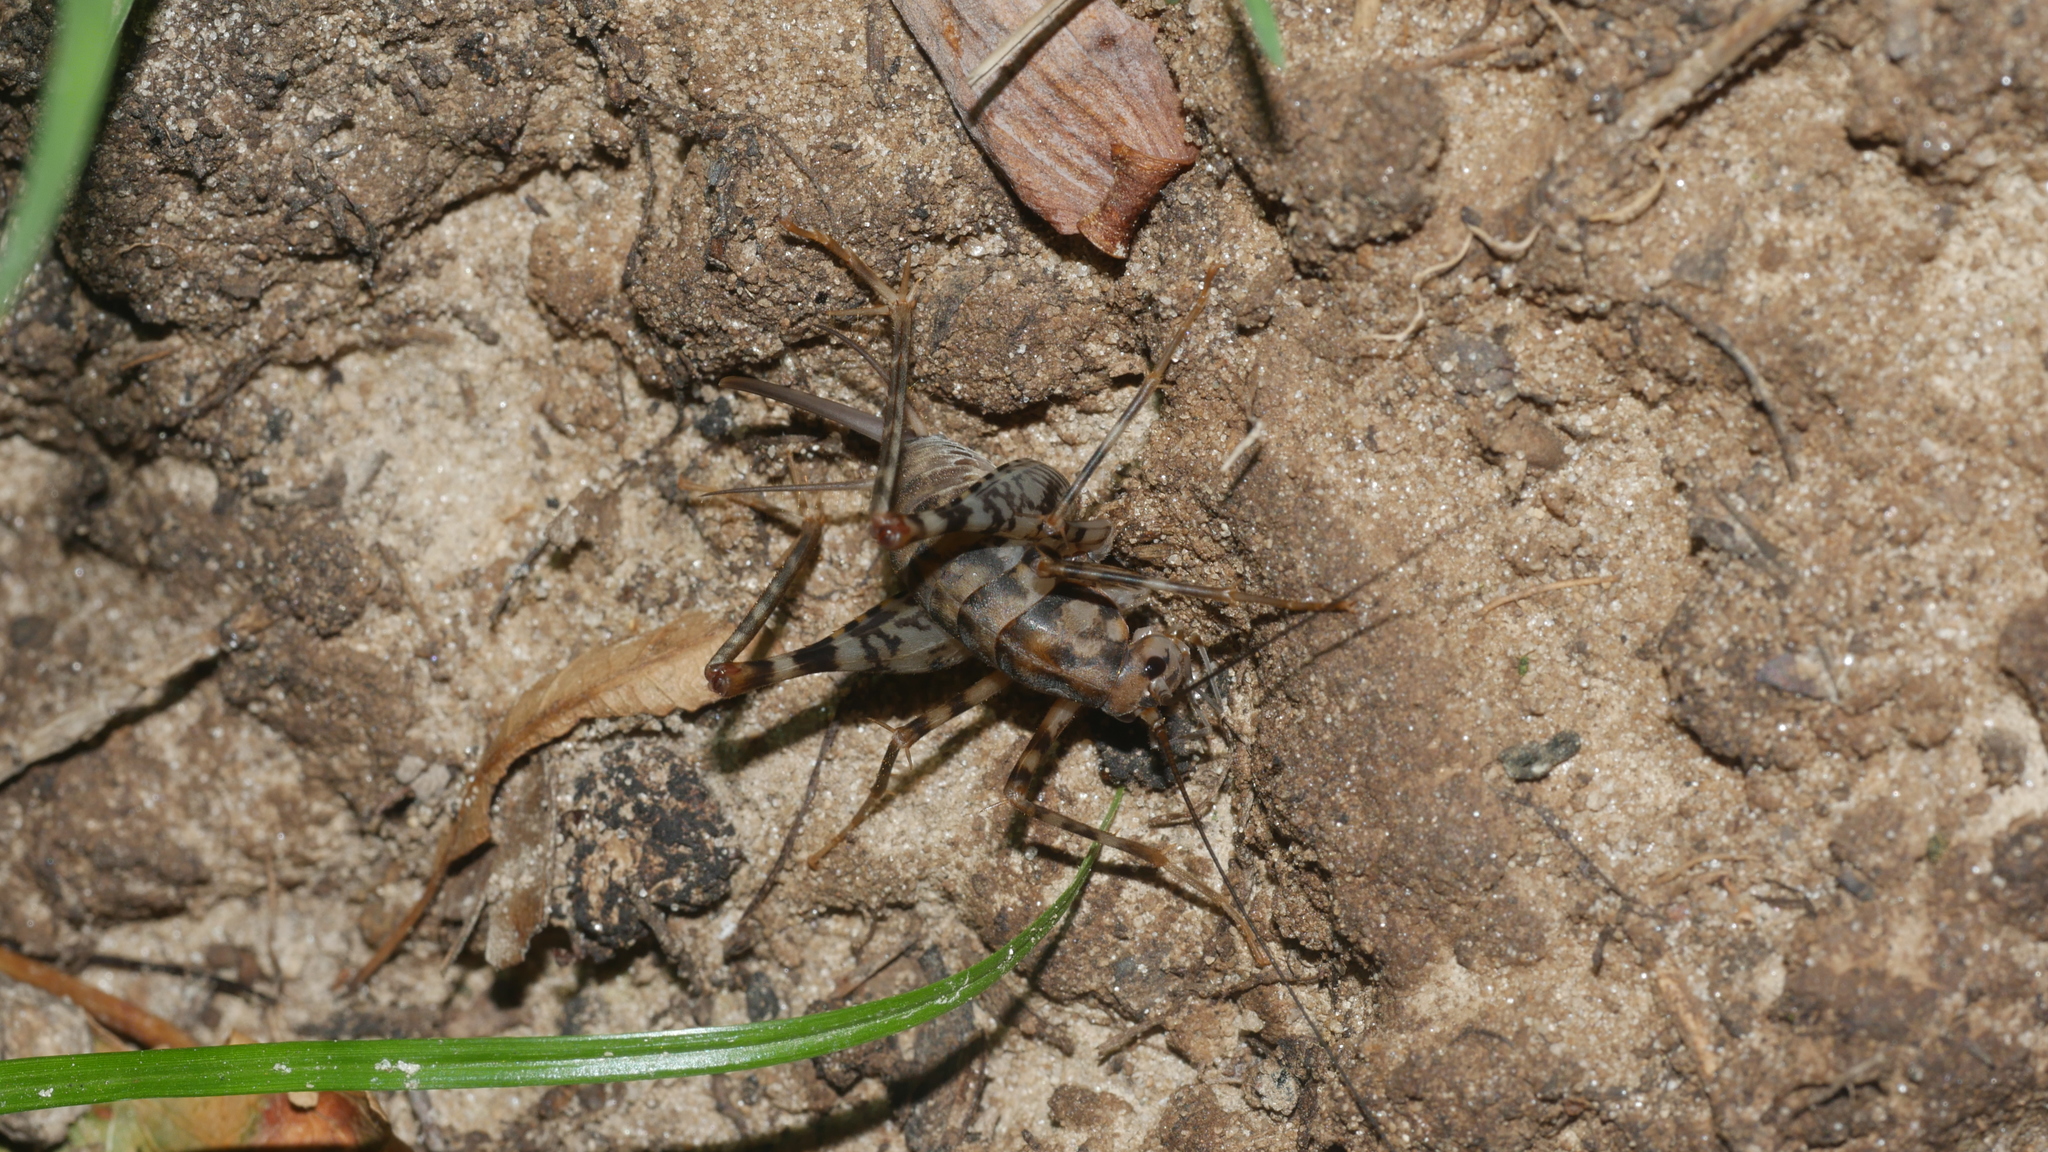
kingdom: Animalia
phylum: Arthropoda
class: Insecta
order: Orthoptera
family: Rhaphidophoridae
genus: Tachycines
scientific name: Tachycines asynamorus
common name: Greenhouse camel cricket
